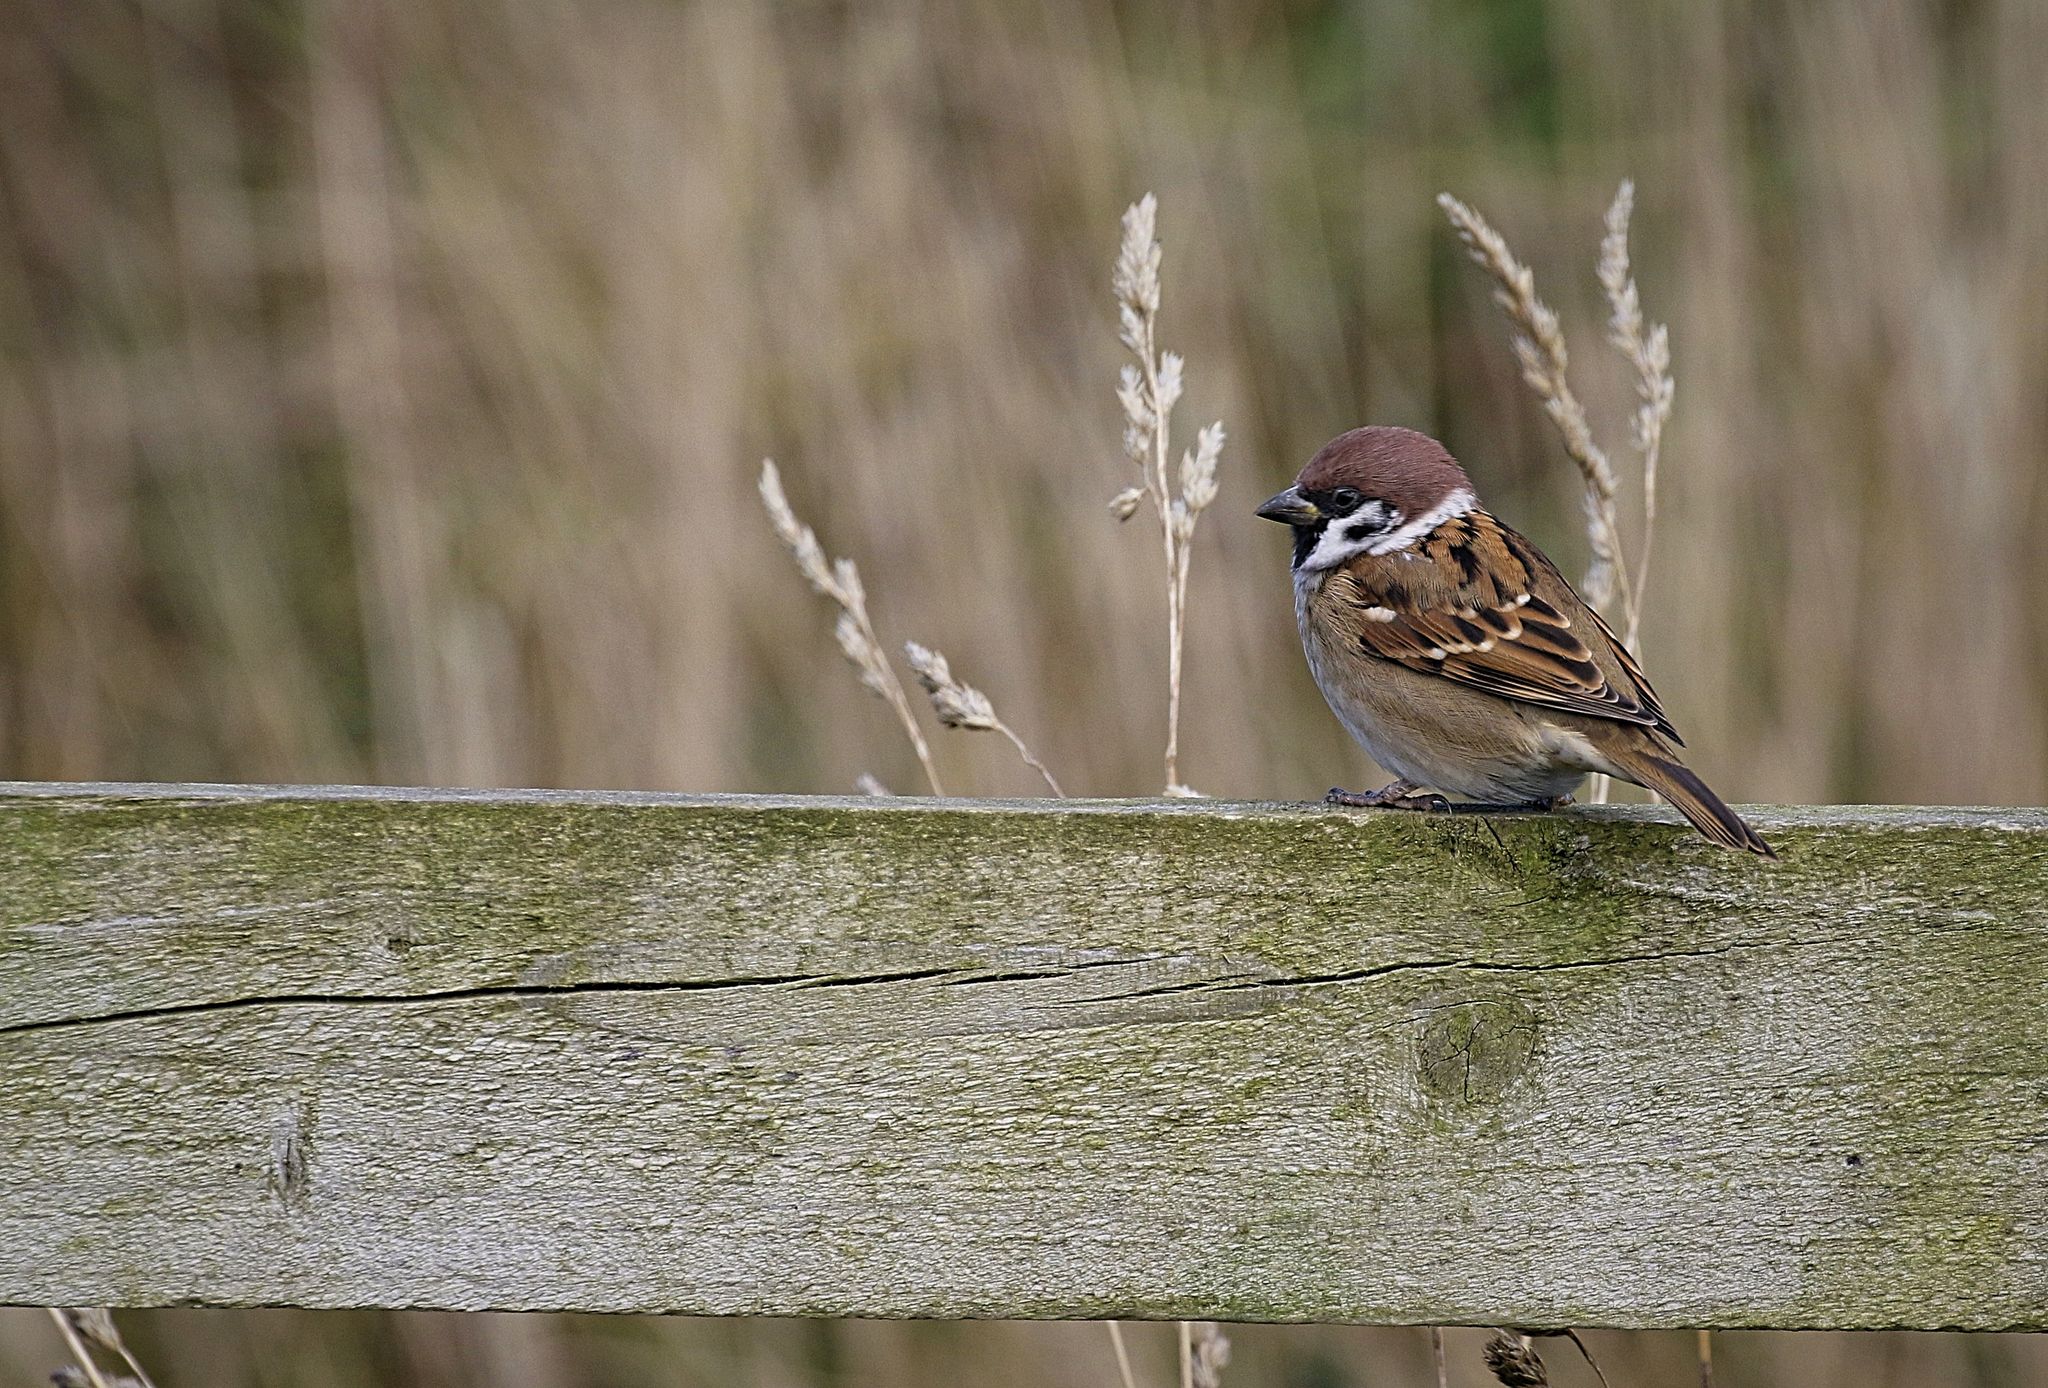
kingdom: Animalia
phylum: Chordata
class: Aves
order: Passeriformes
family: Passeridae
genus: Passer
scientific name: Passer montanus
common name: Eurasian tree sparrow
